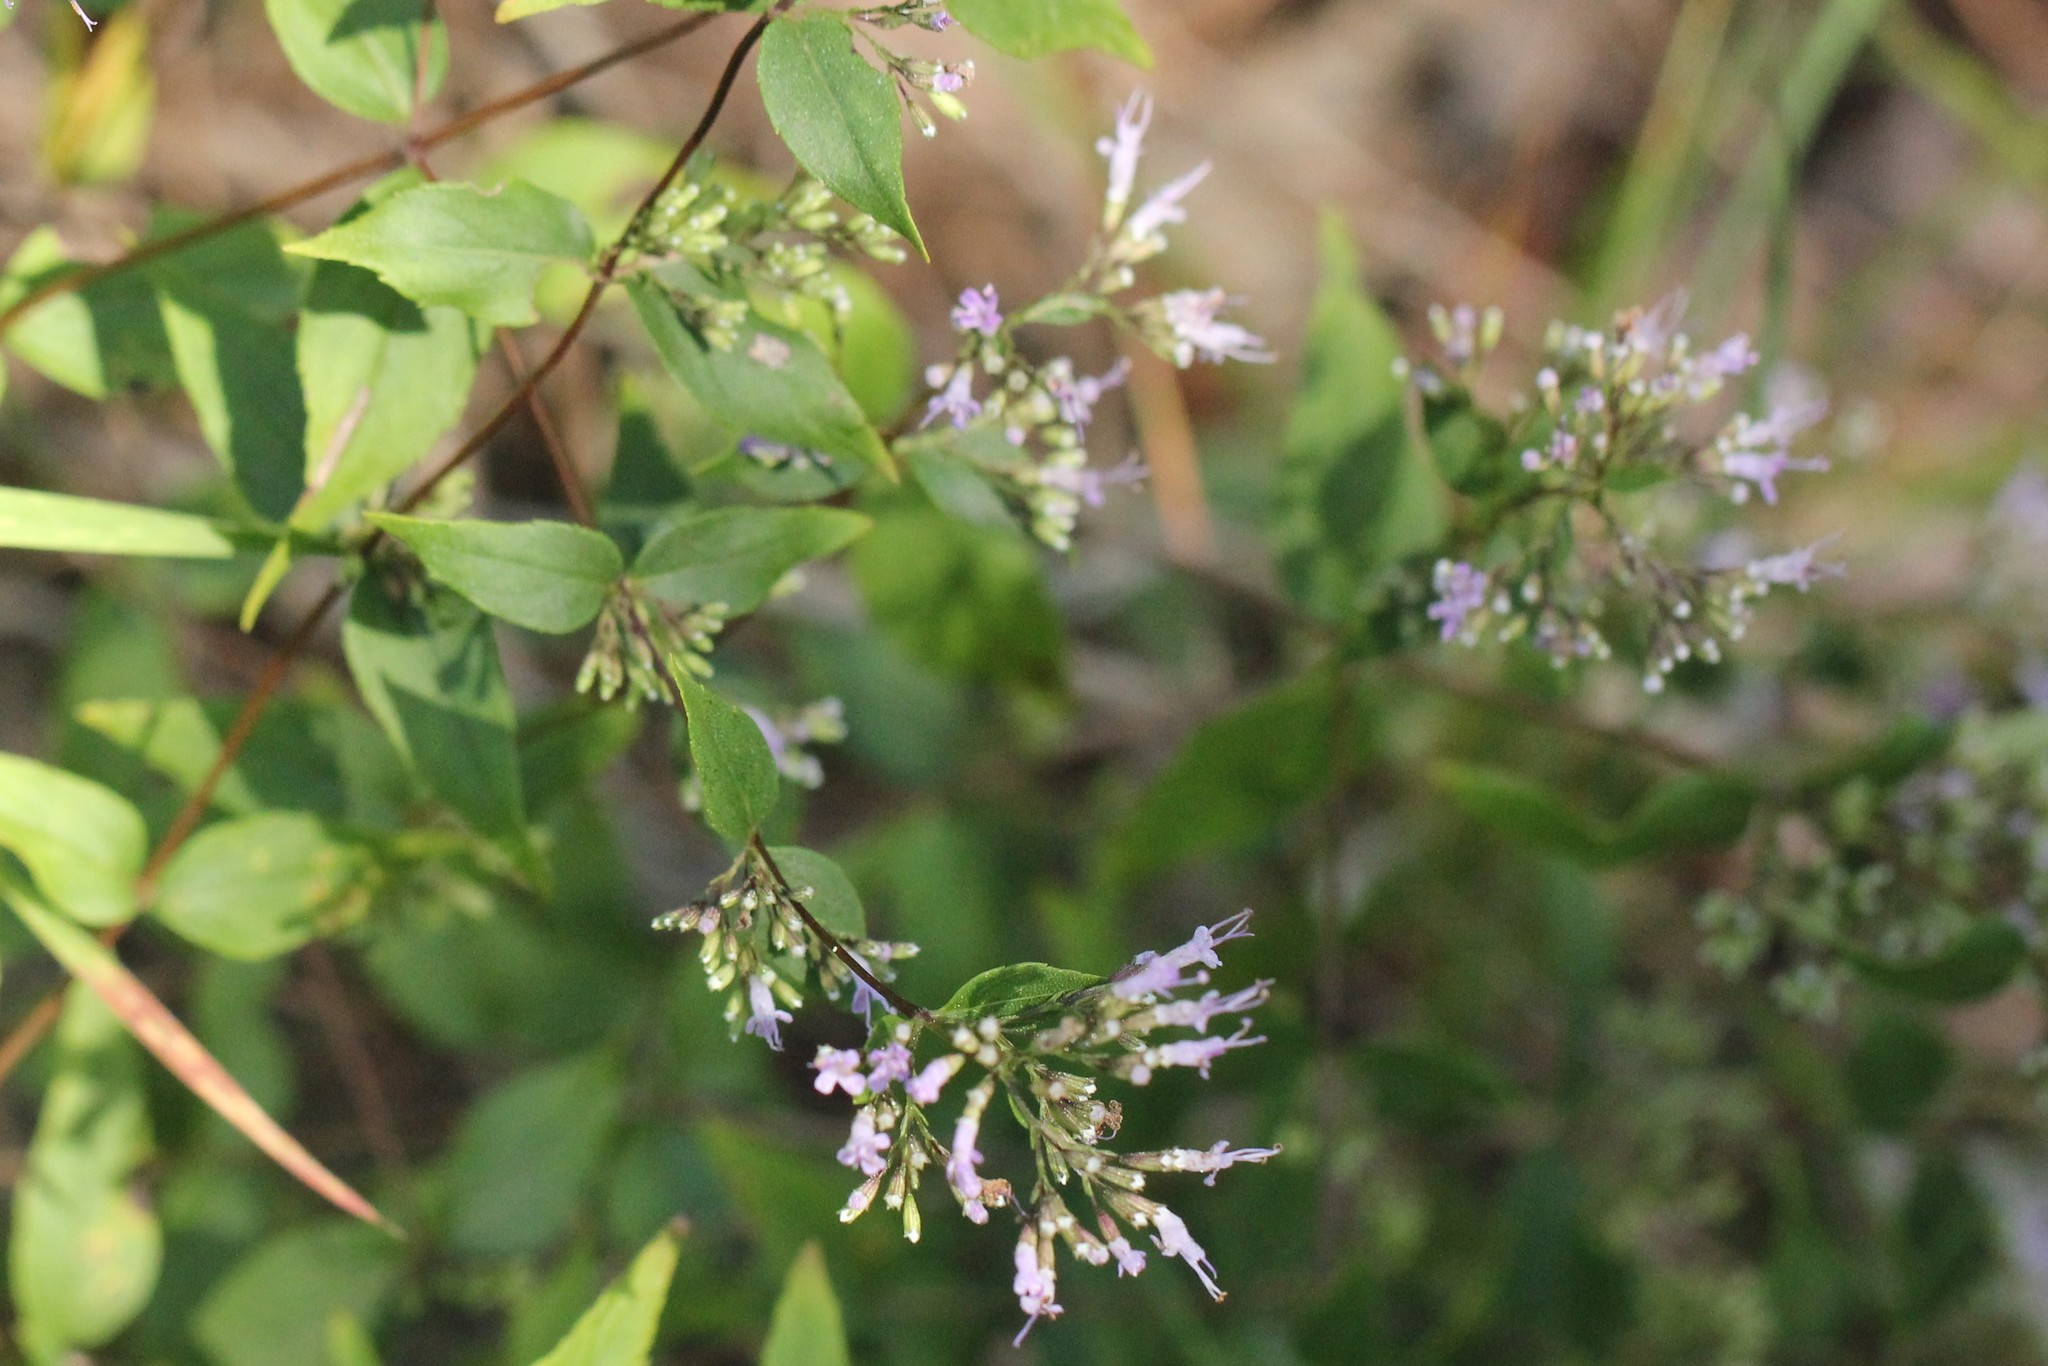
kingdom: Plantae
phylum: Tracheophyta
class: Magnoliopsida
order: Lamiales
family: Lamiaceae
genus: Cunila
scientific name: Cunila origanoides
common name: American dittany
